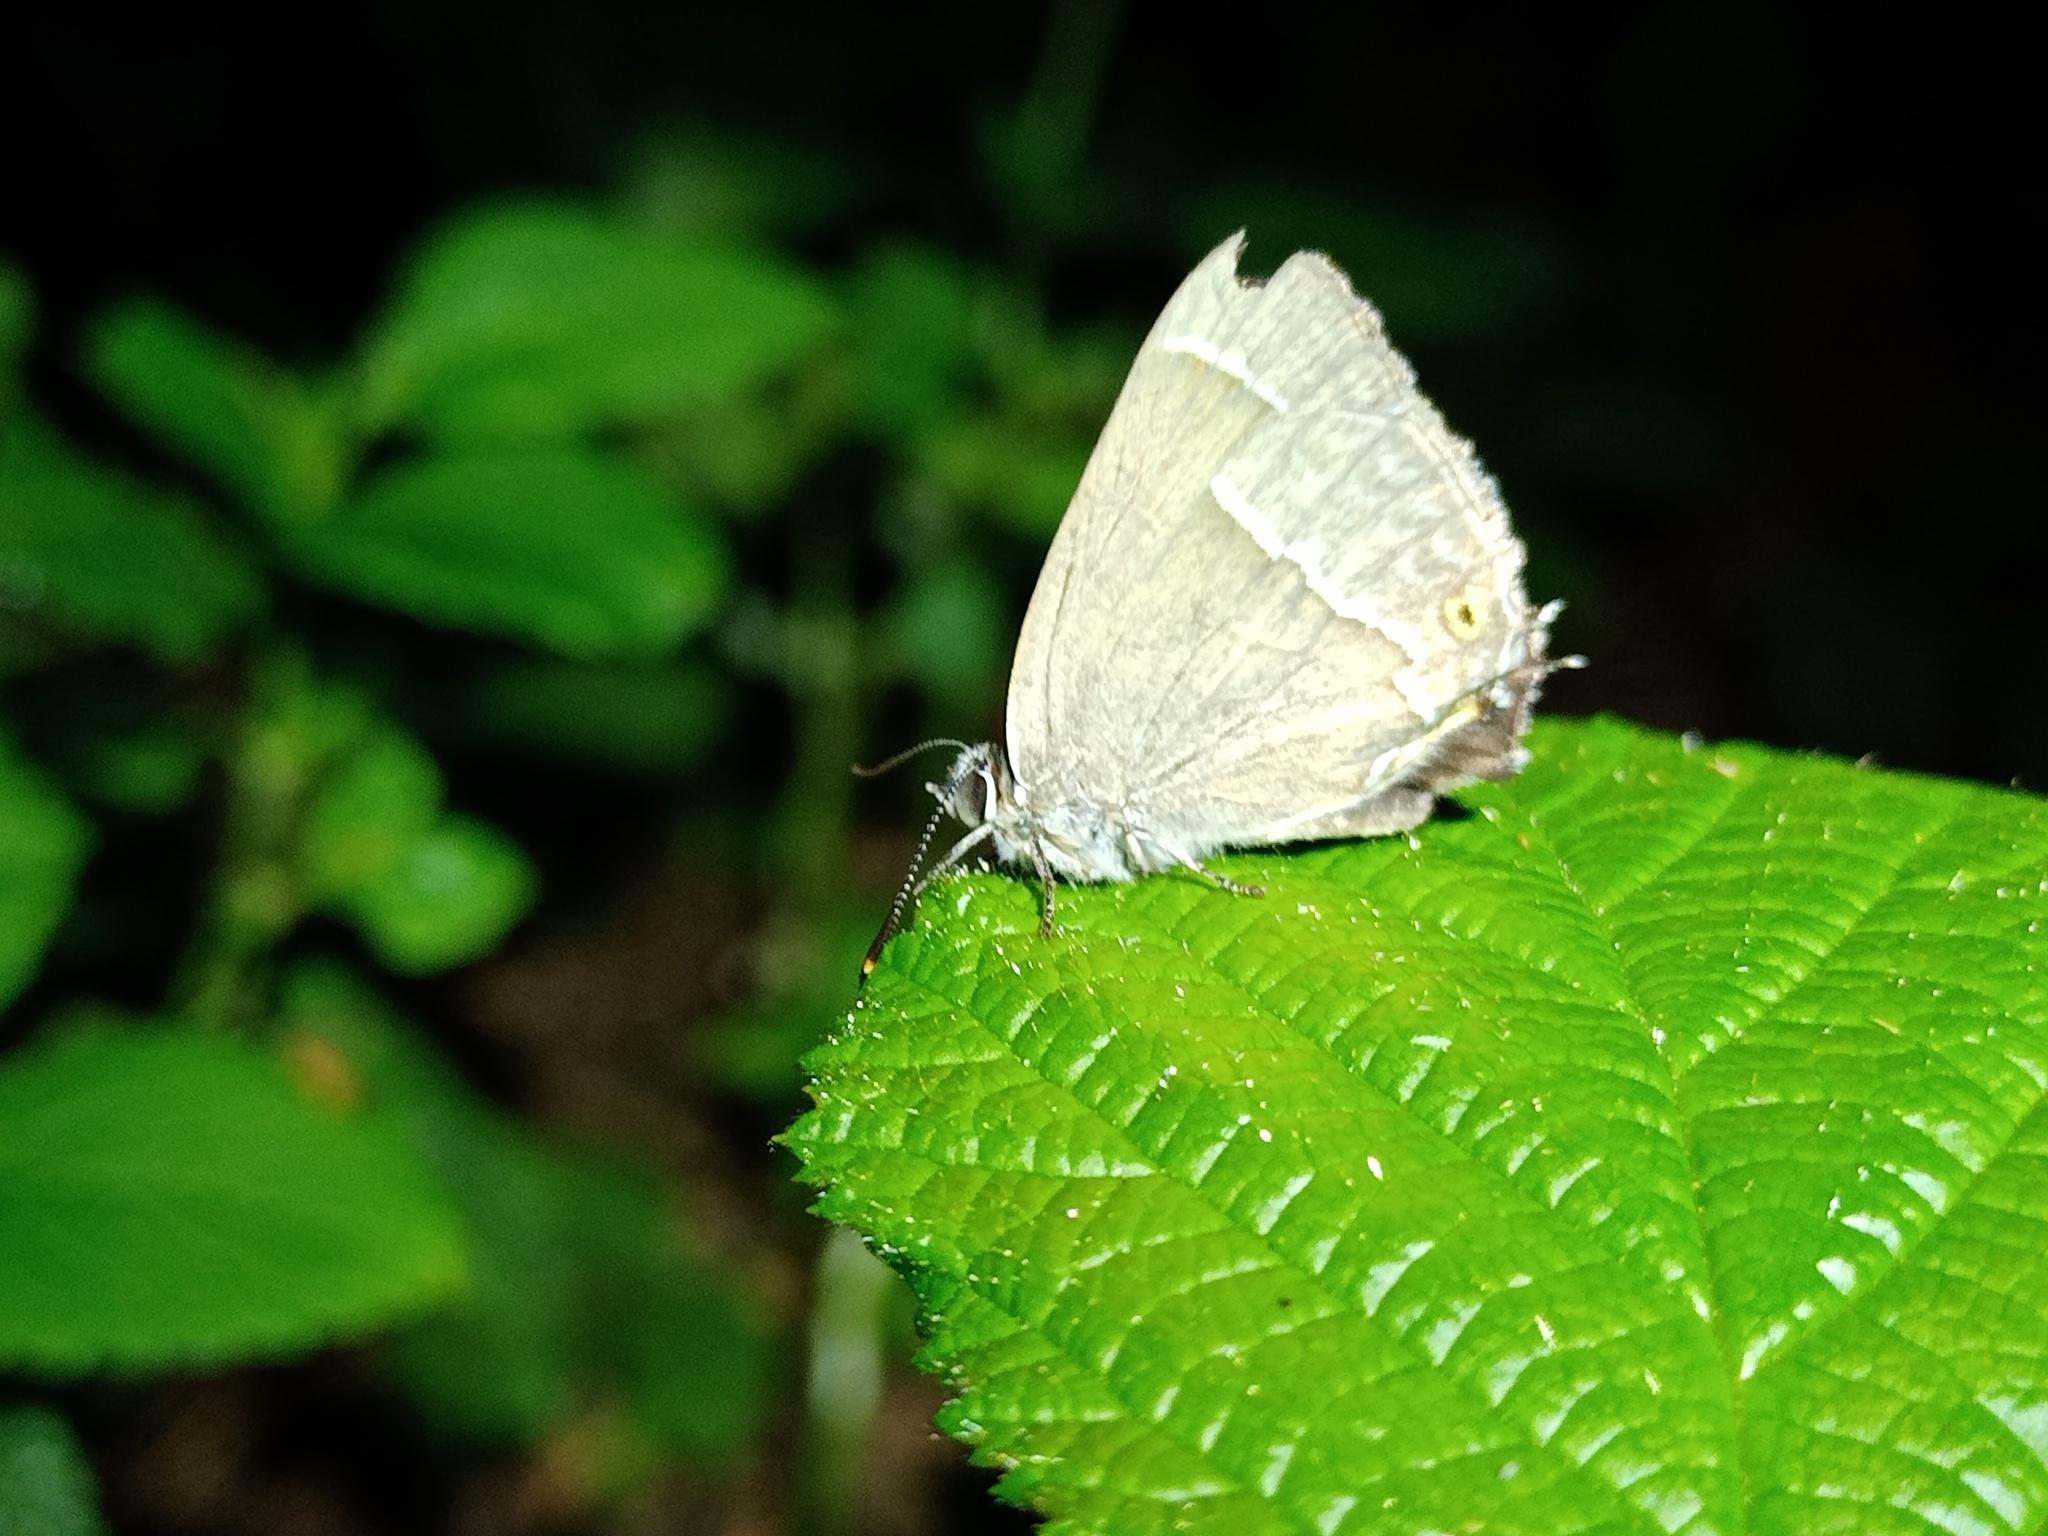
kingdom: Animalia
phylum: Arthropoda
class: Insecta
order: Lepidoptera
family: Lycaenidae
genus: Quercusia
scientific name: Quercusia quercus
